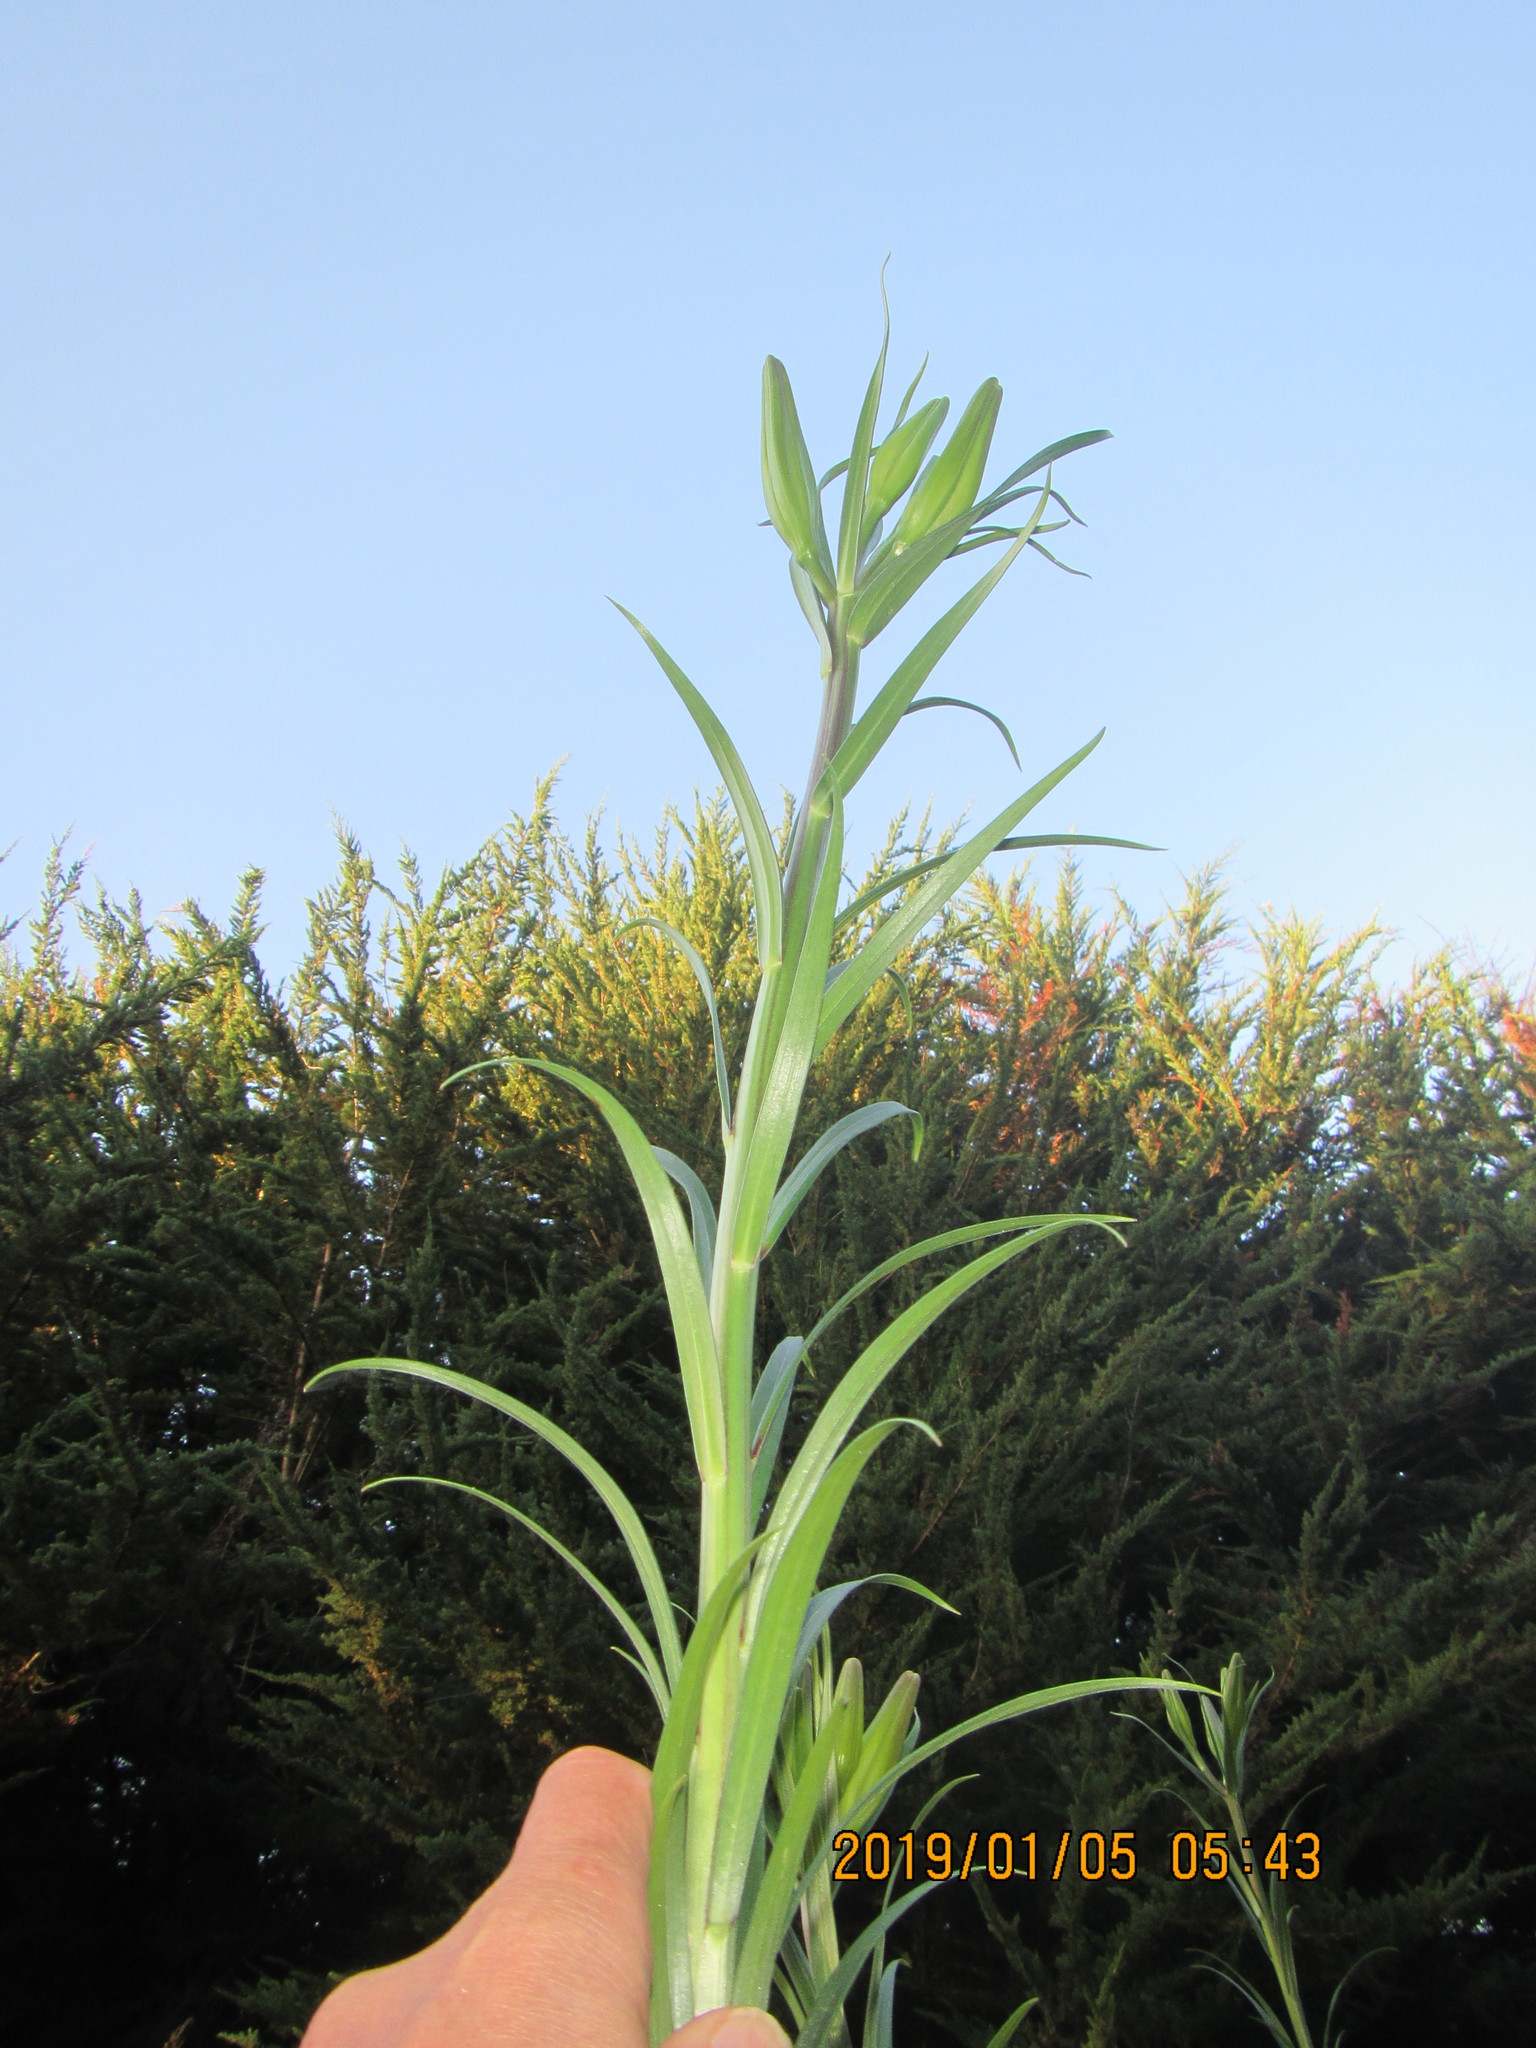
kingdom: Plantae
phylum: Tracheophyta
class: Liliopsida
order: Liliales
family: Liliaceae
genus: Lilium
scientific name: Lilium formosanum
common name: Formosa lily
